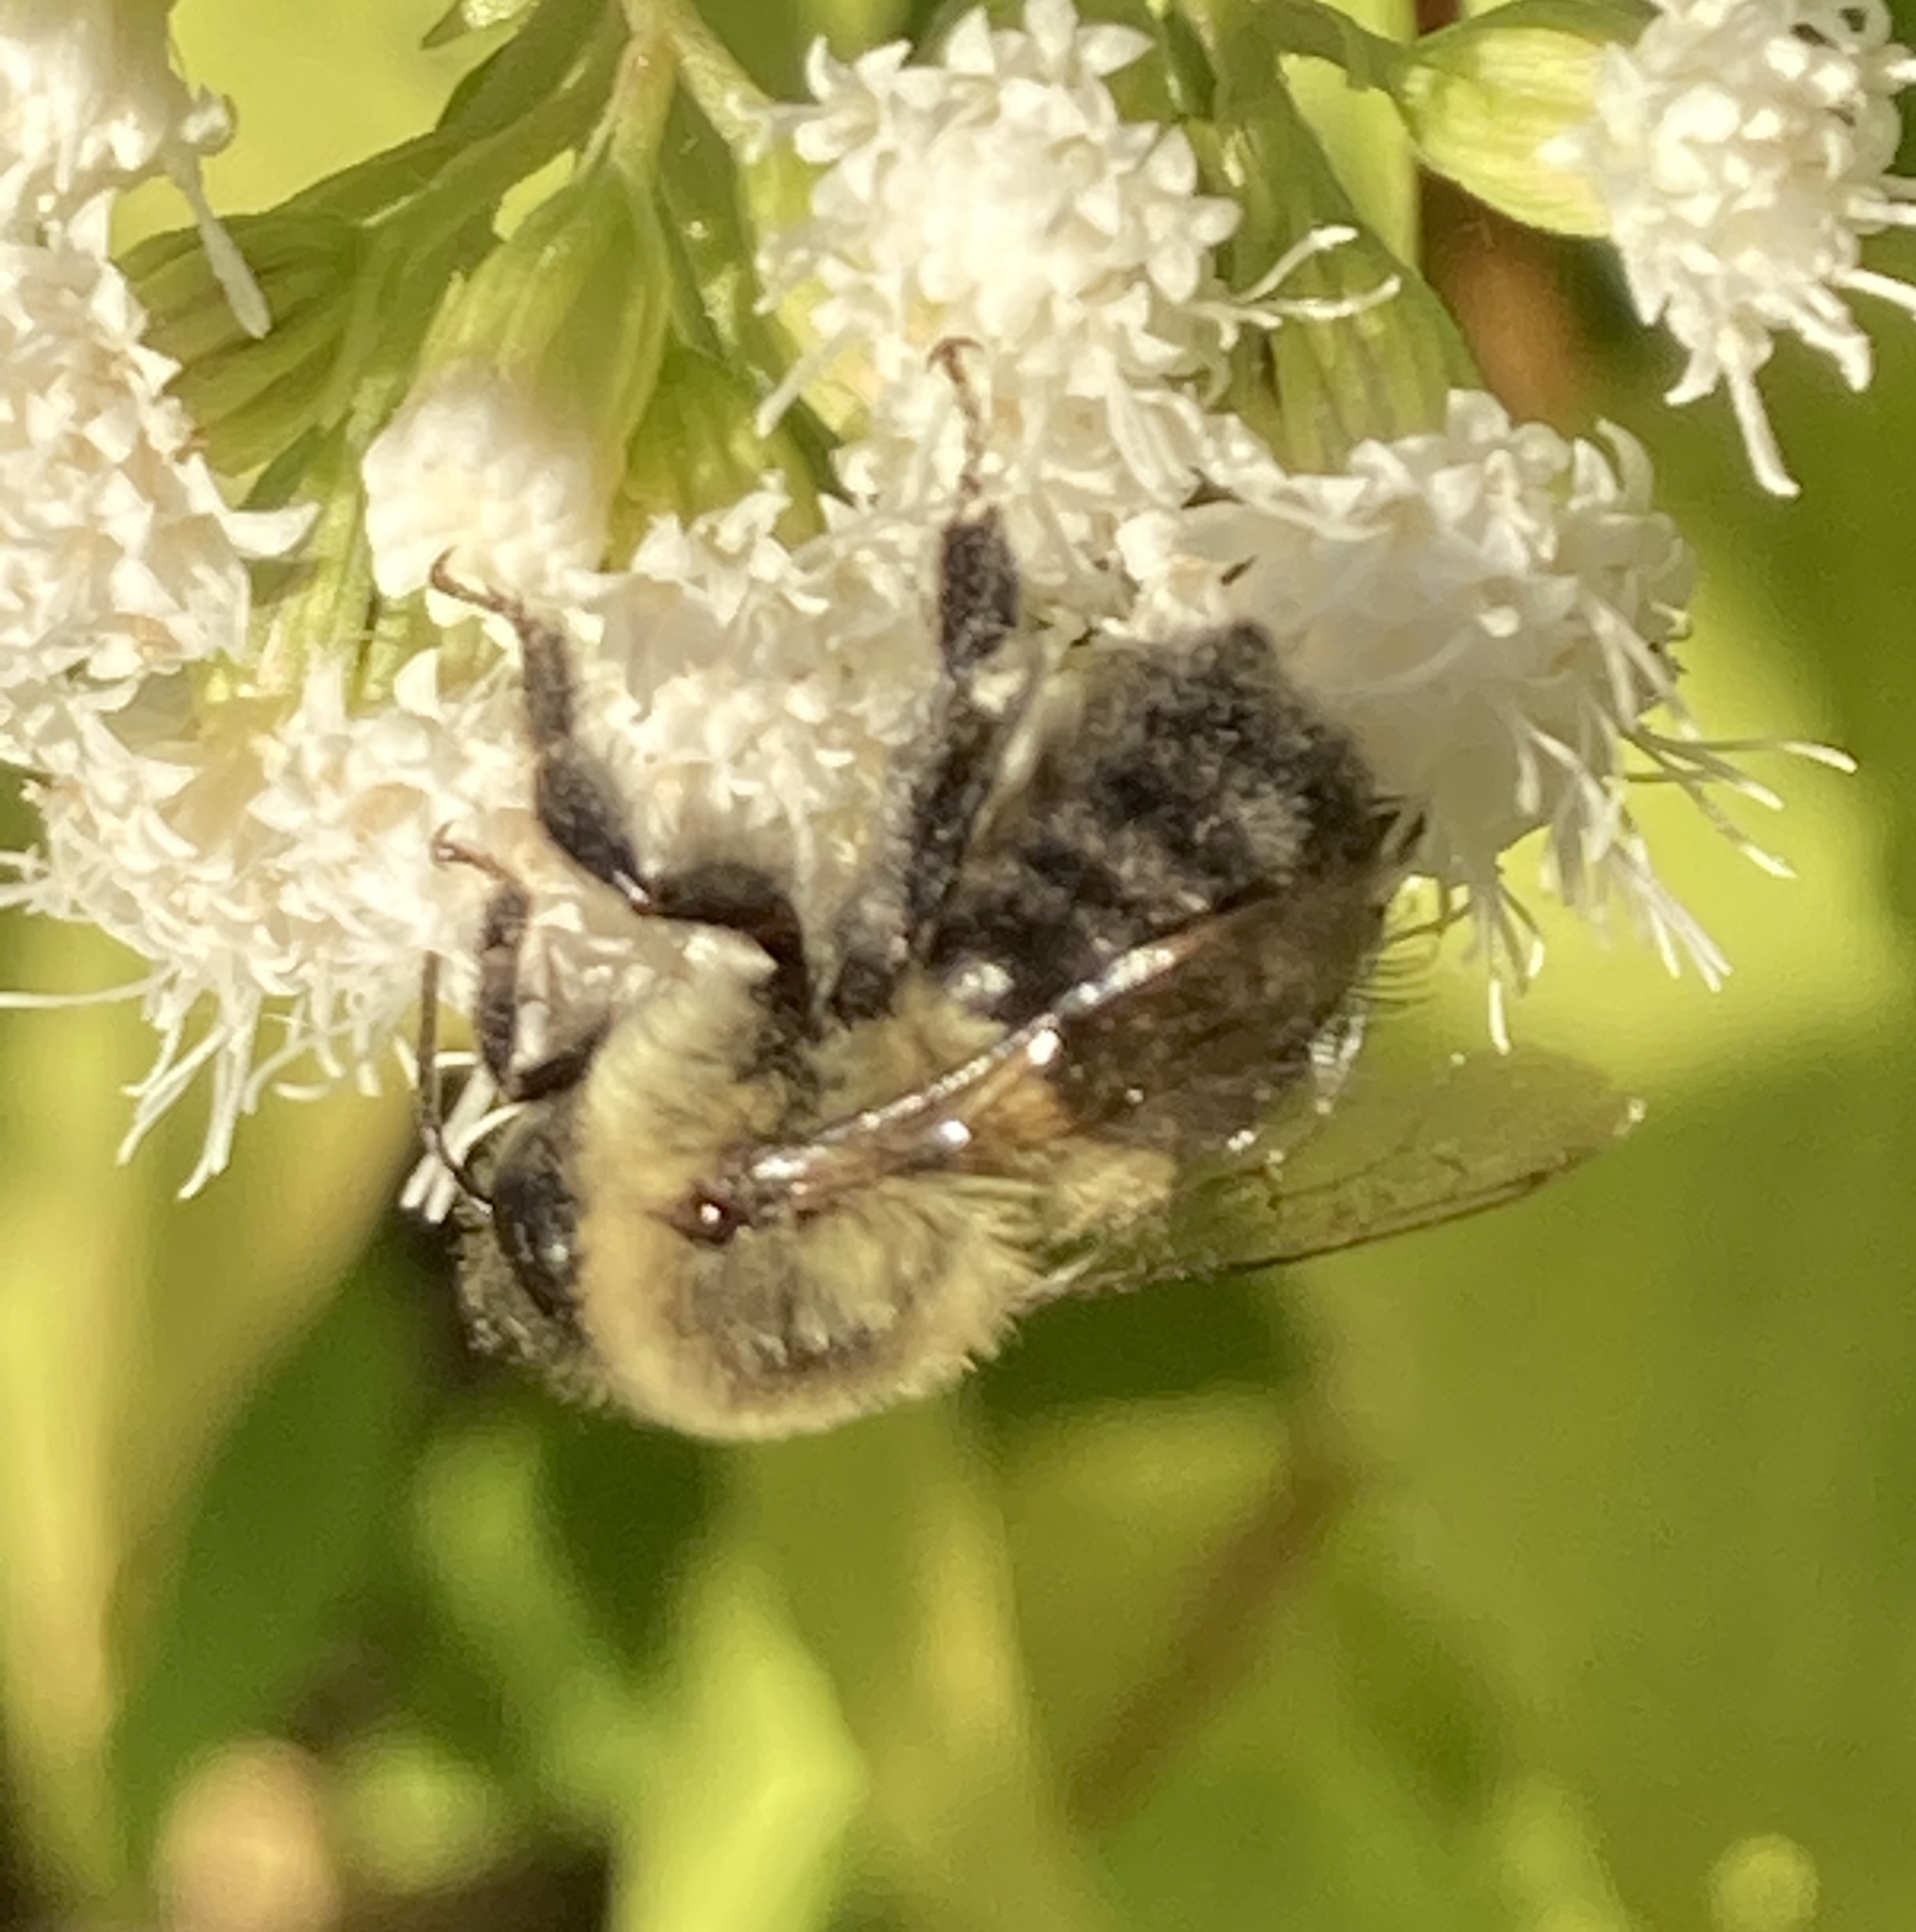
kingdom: Animalia
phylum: Arthropoda
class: Insecta
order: Hymenoptera
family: Apidae
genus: Bombus
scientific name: Bombus impatiens
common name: Common eastern bumble bee
